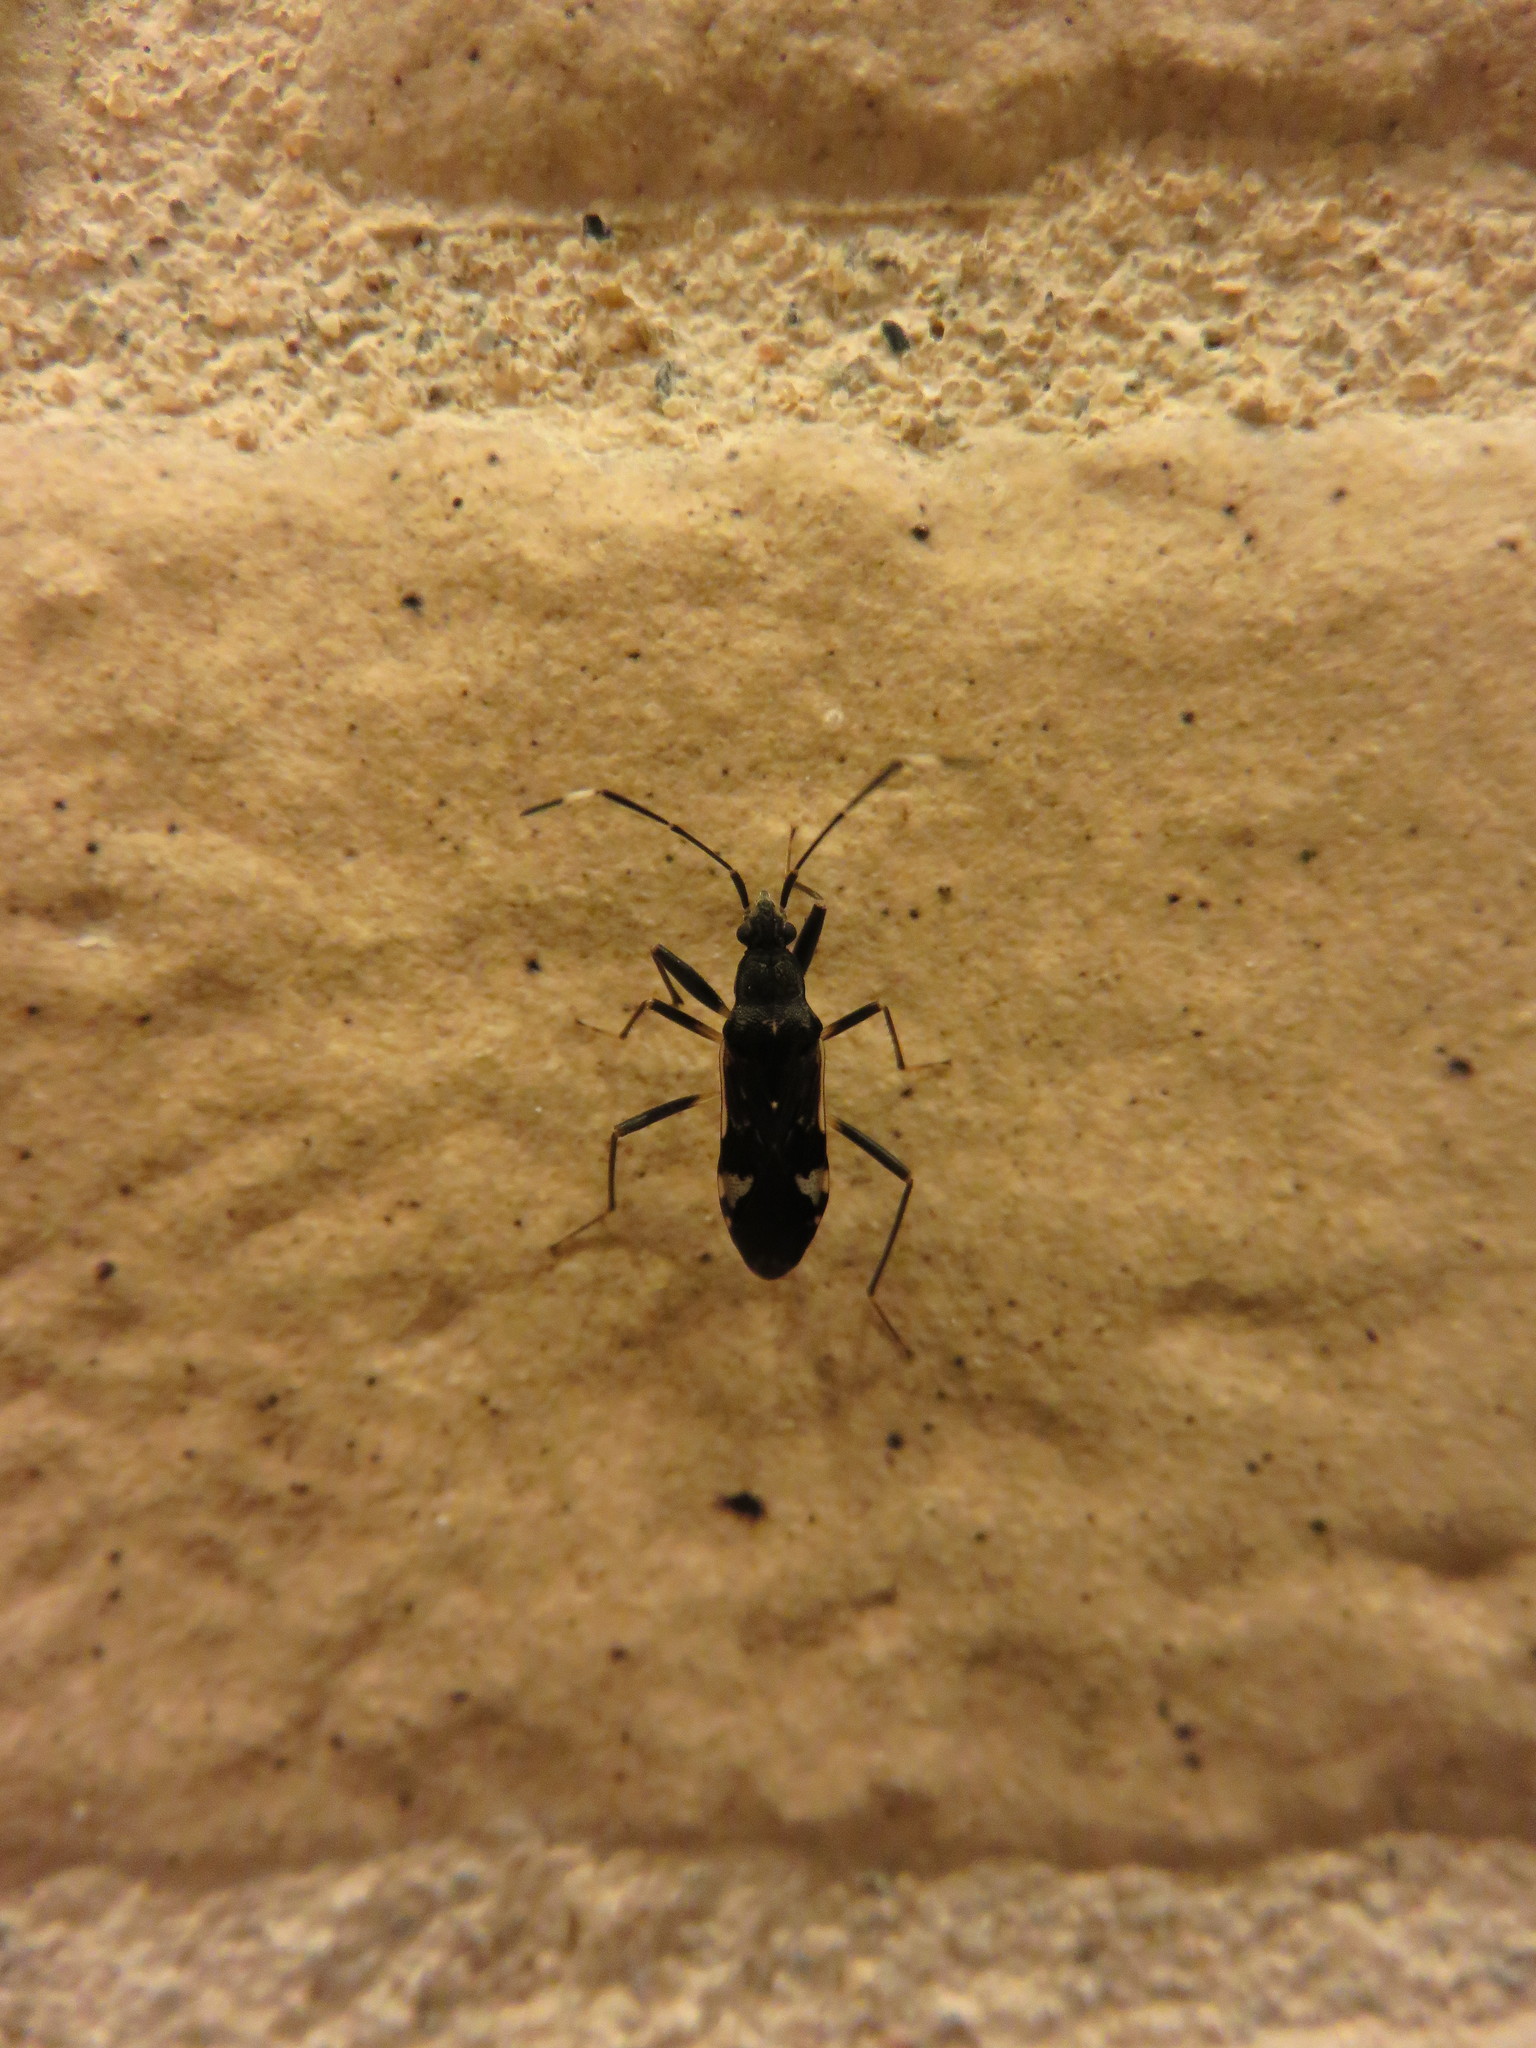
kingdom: Animalia
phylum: Arthropoda
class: Insecta
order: Hemiptera
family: Rhyparochromidae
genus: Metochus
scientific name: Metochus abbreviatus
